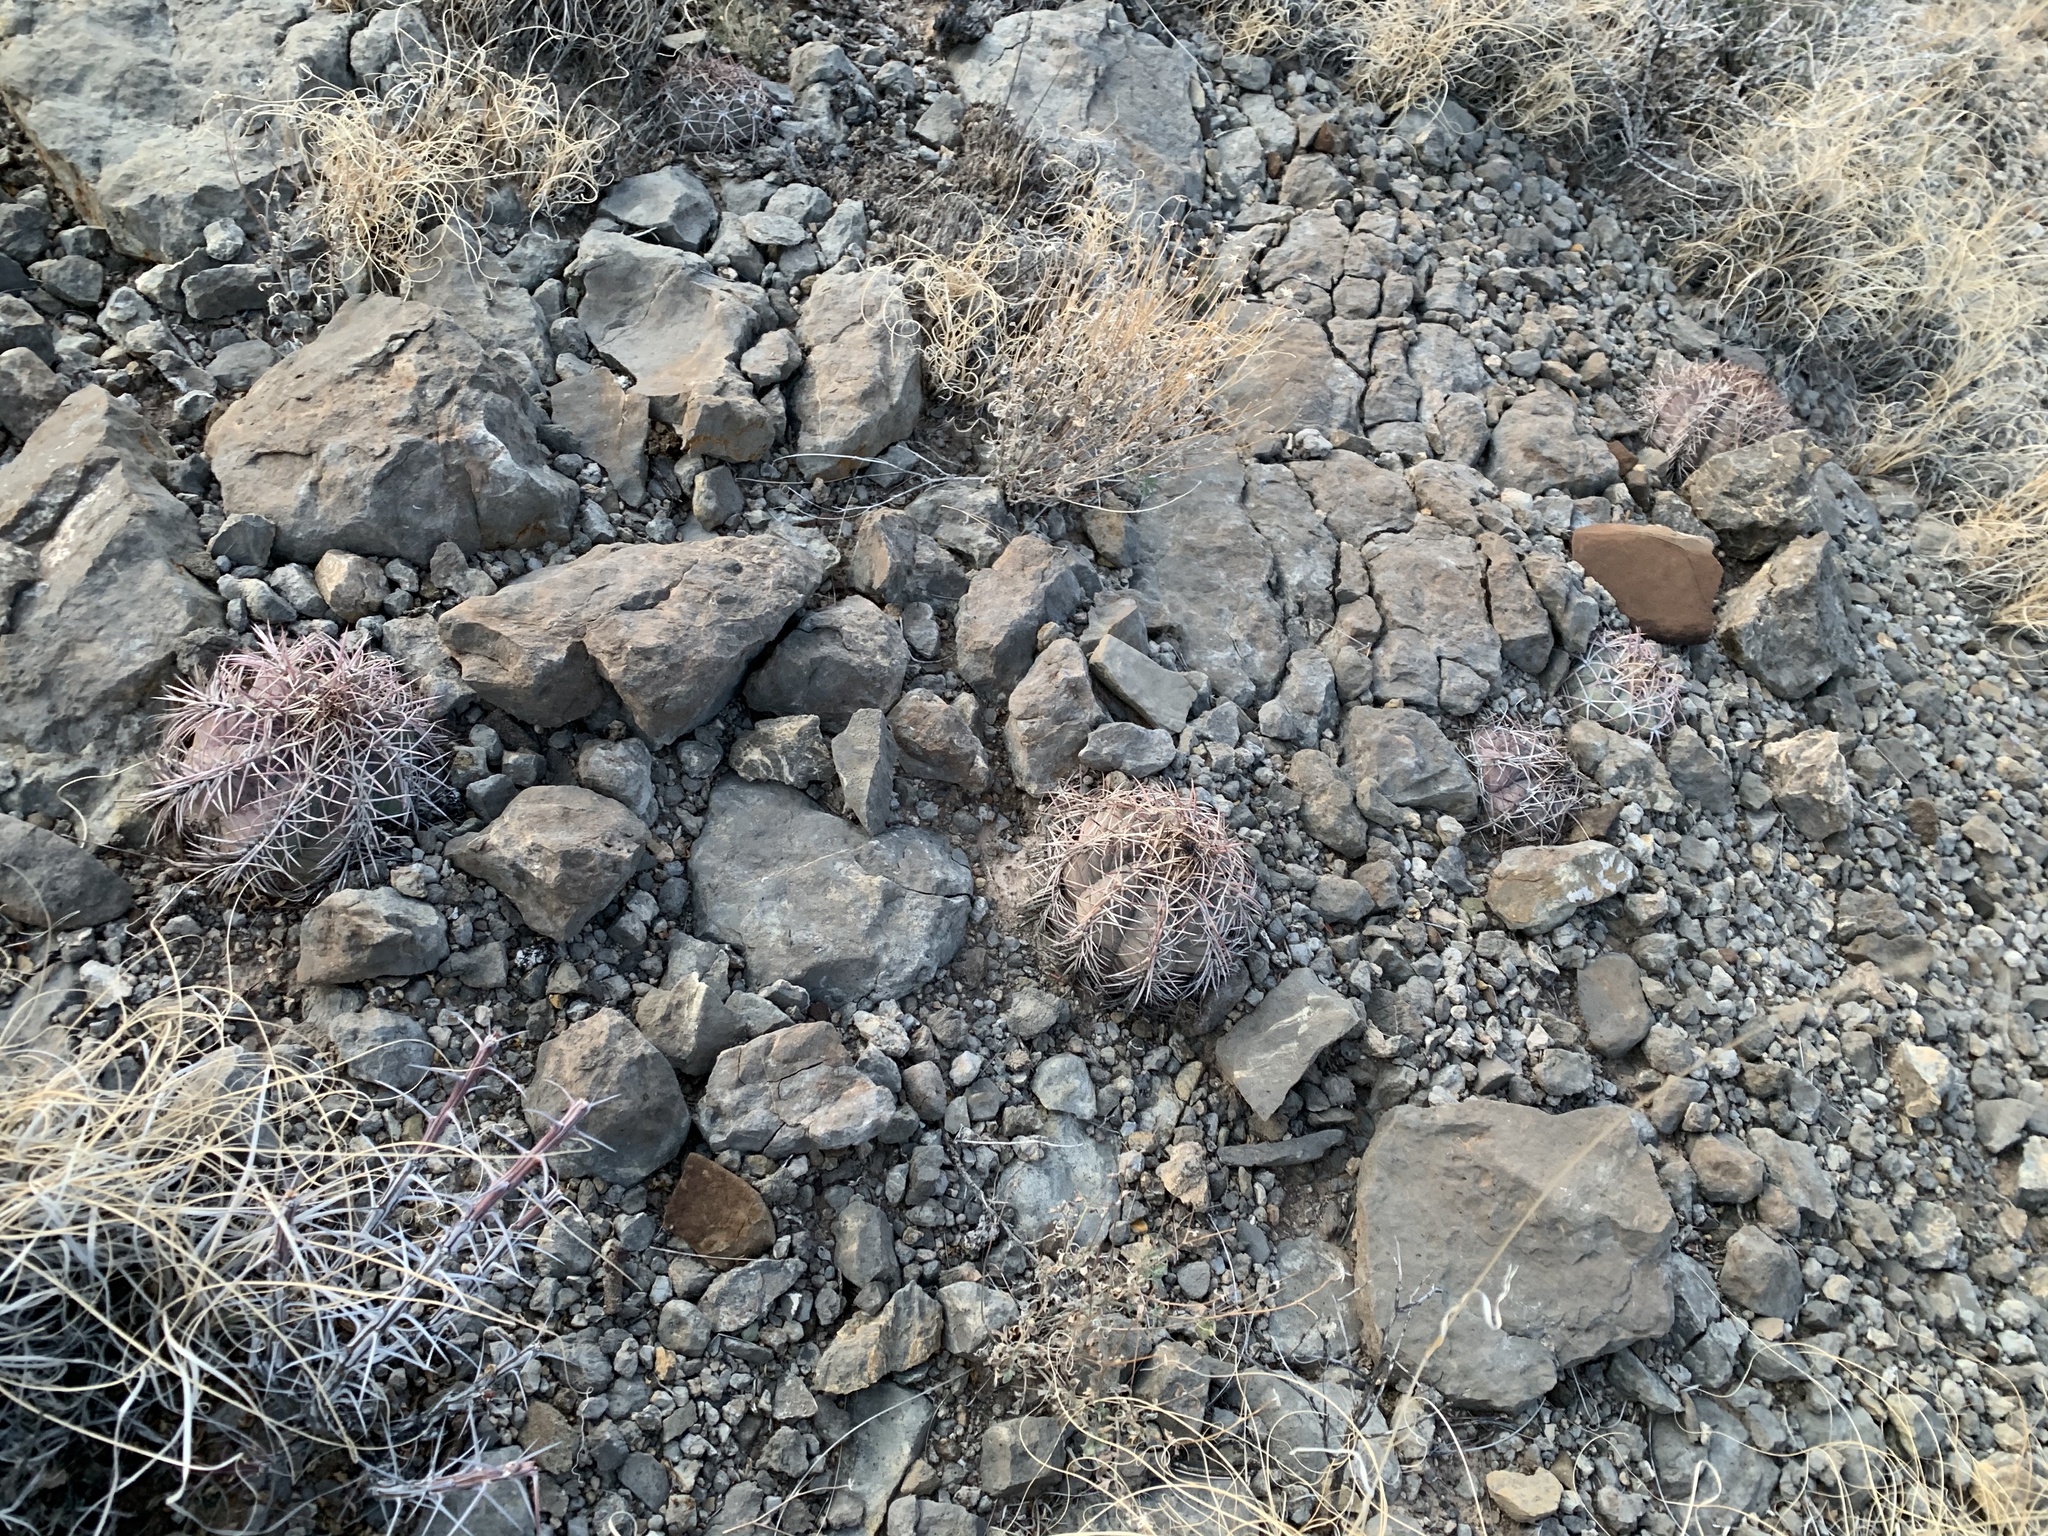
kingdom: Plantae
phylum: Tracheophyta
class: Magnoliopsida
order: Caryophyllales
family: Cactaceae
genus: Echinocactus
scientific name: Echinocactus horizonthalonius
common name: Devilshead
